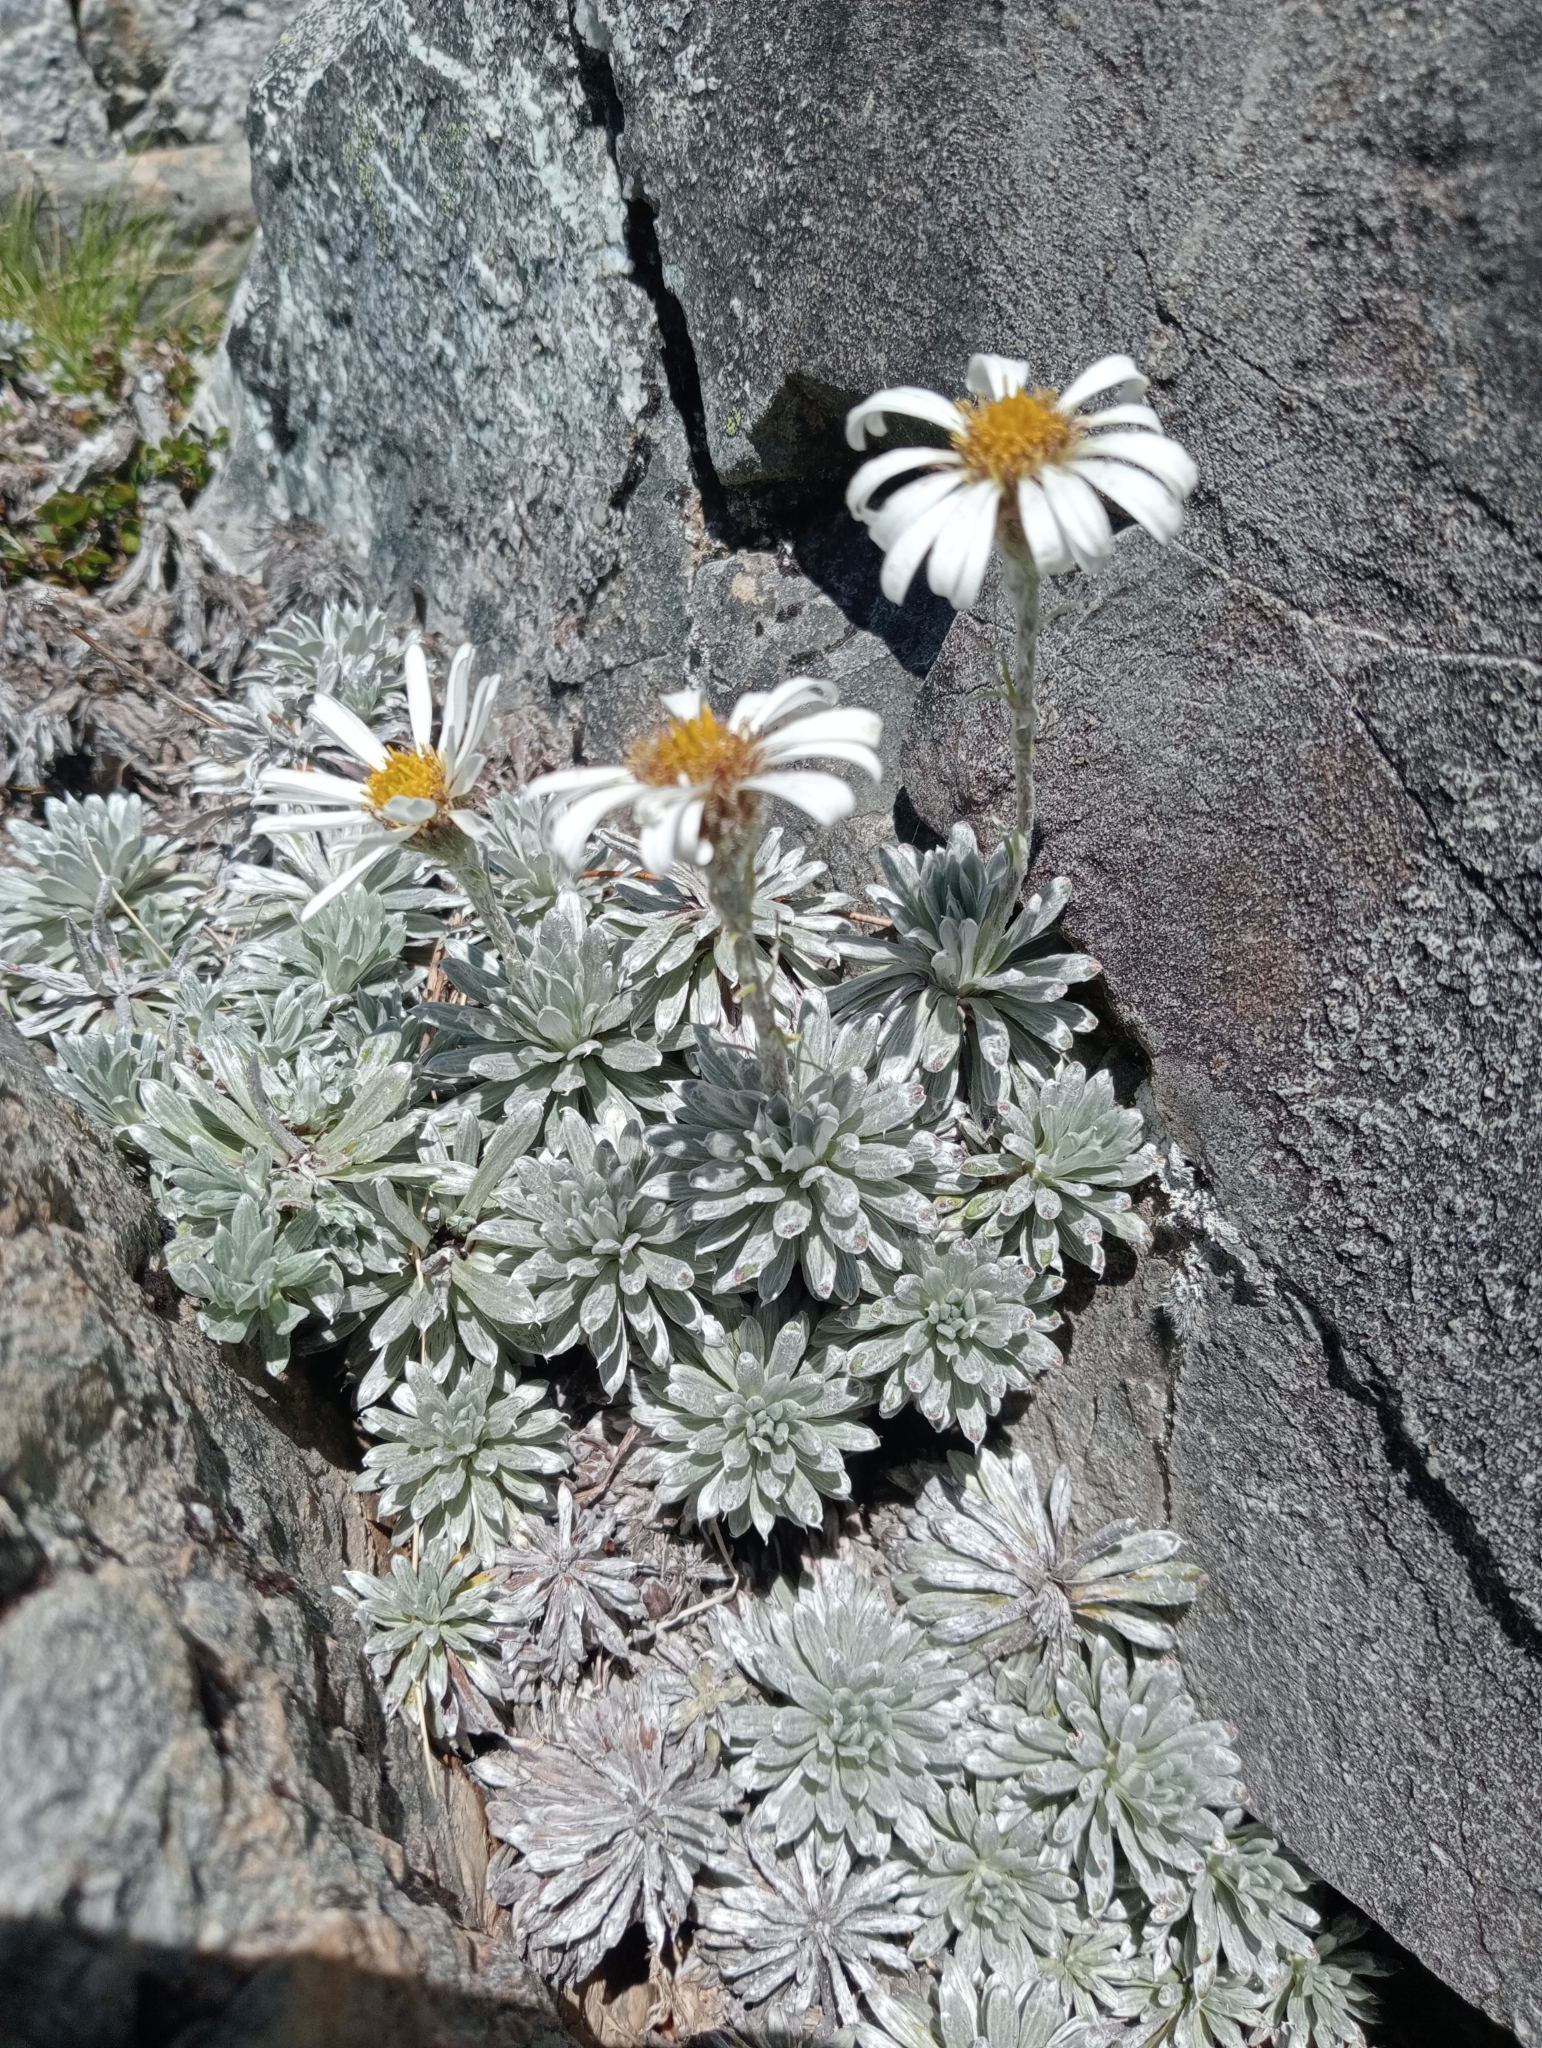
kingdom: Plantae
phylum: Tracheophyta
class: Magnoliopsida
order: Asterales
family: Asteraceae
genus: Celmisia
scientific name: Celmisia hectorii
